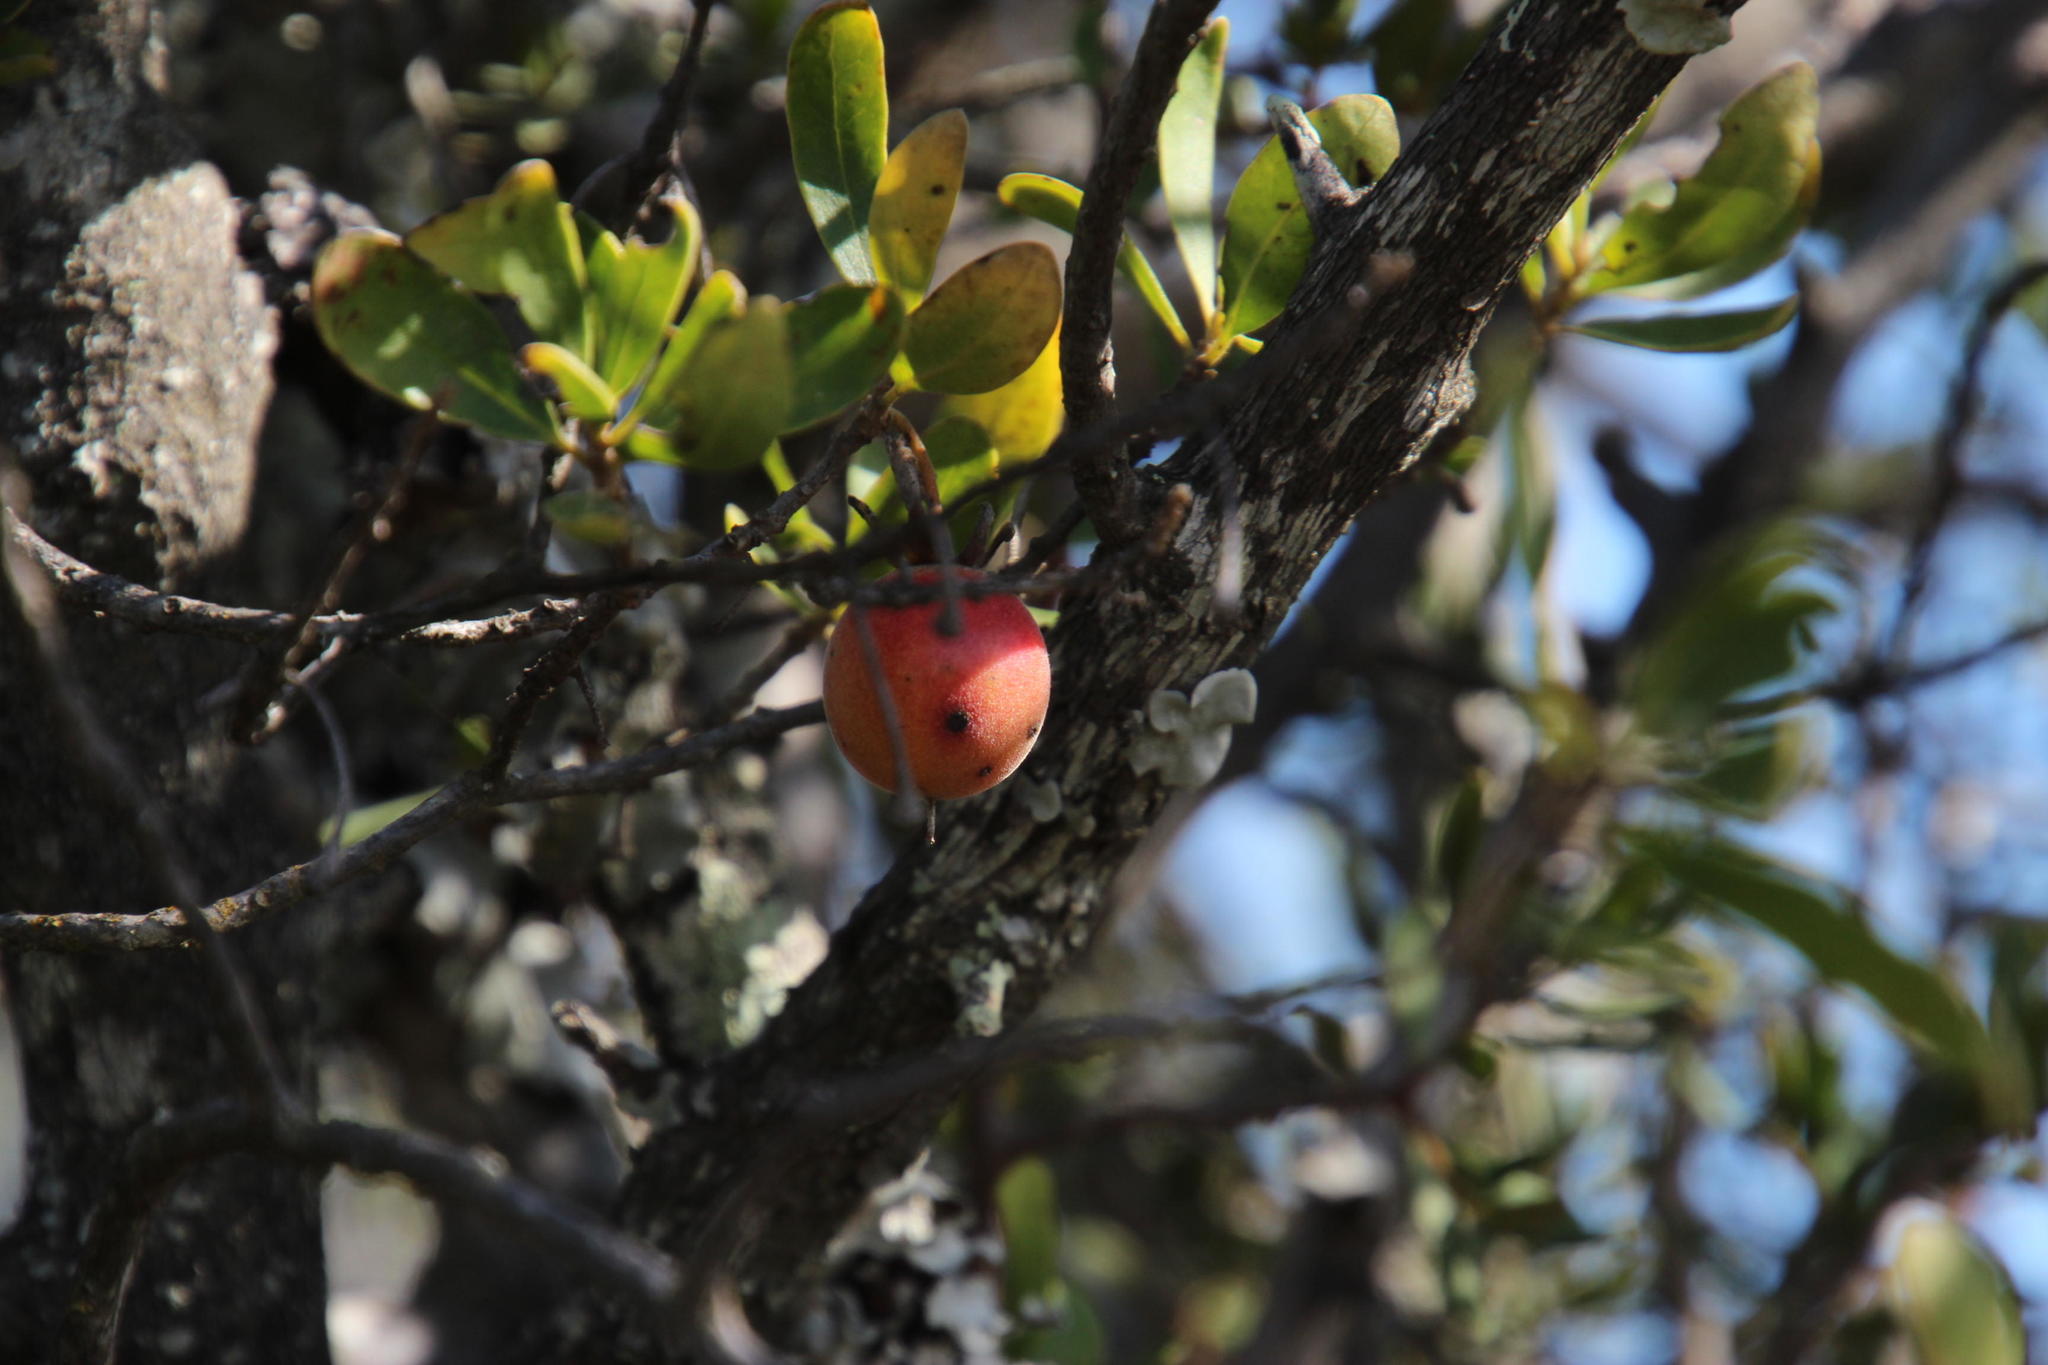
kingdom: Plantae
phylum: Tracheophyta
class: Magnoliopsida
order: Ericales
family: Ebenaceae
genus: Diospyros
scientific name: Diospyros lycioides
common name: Red star apple
